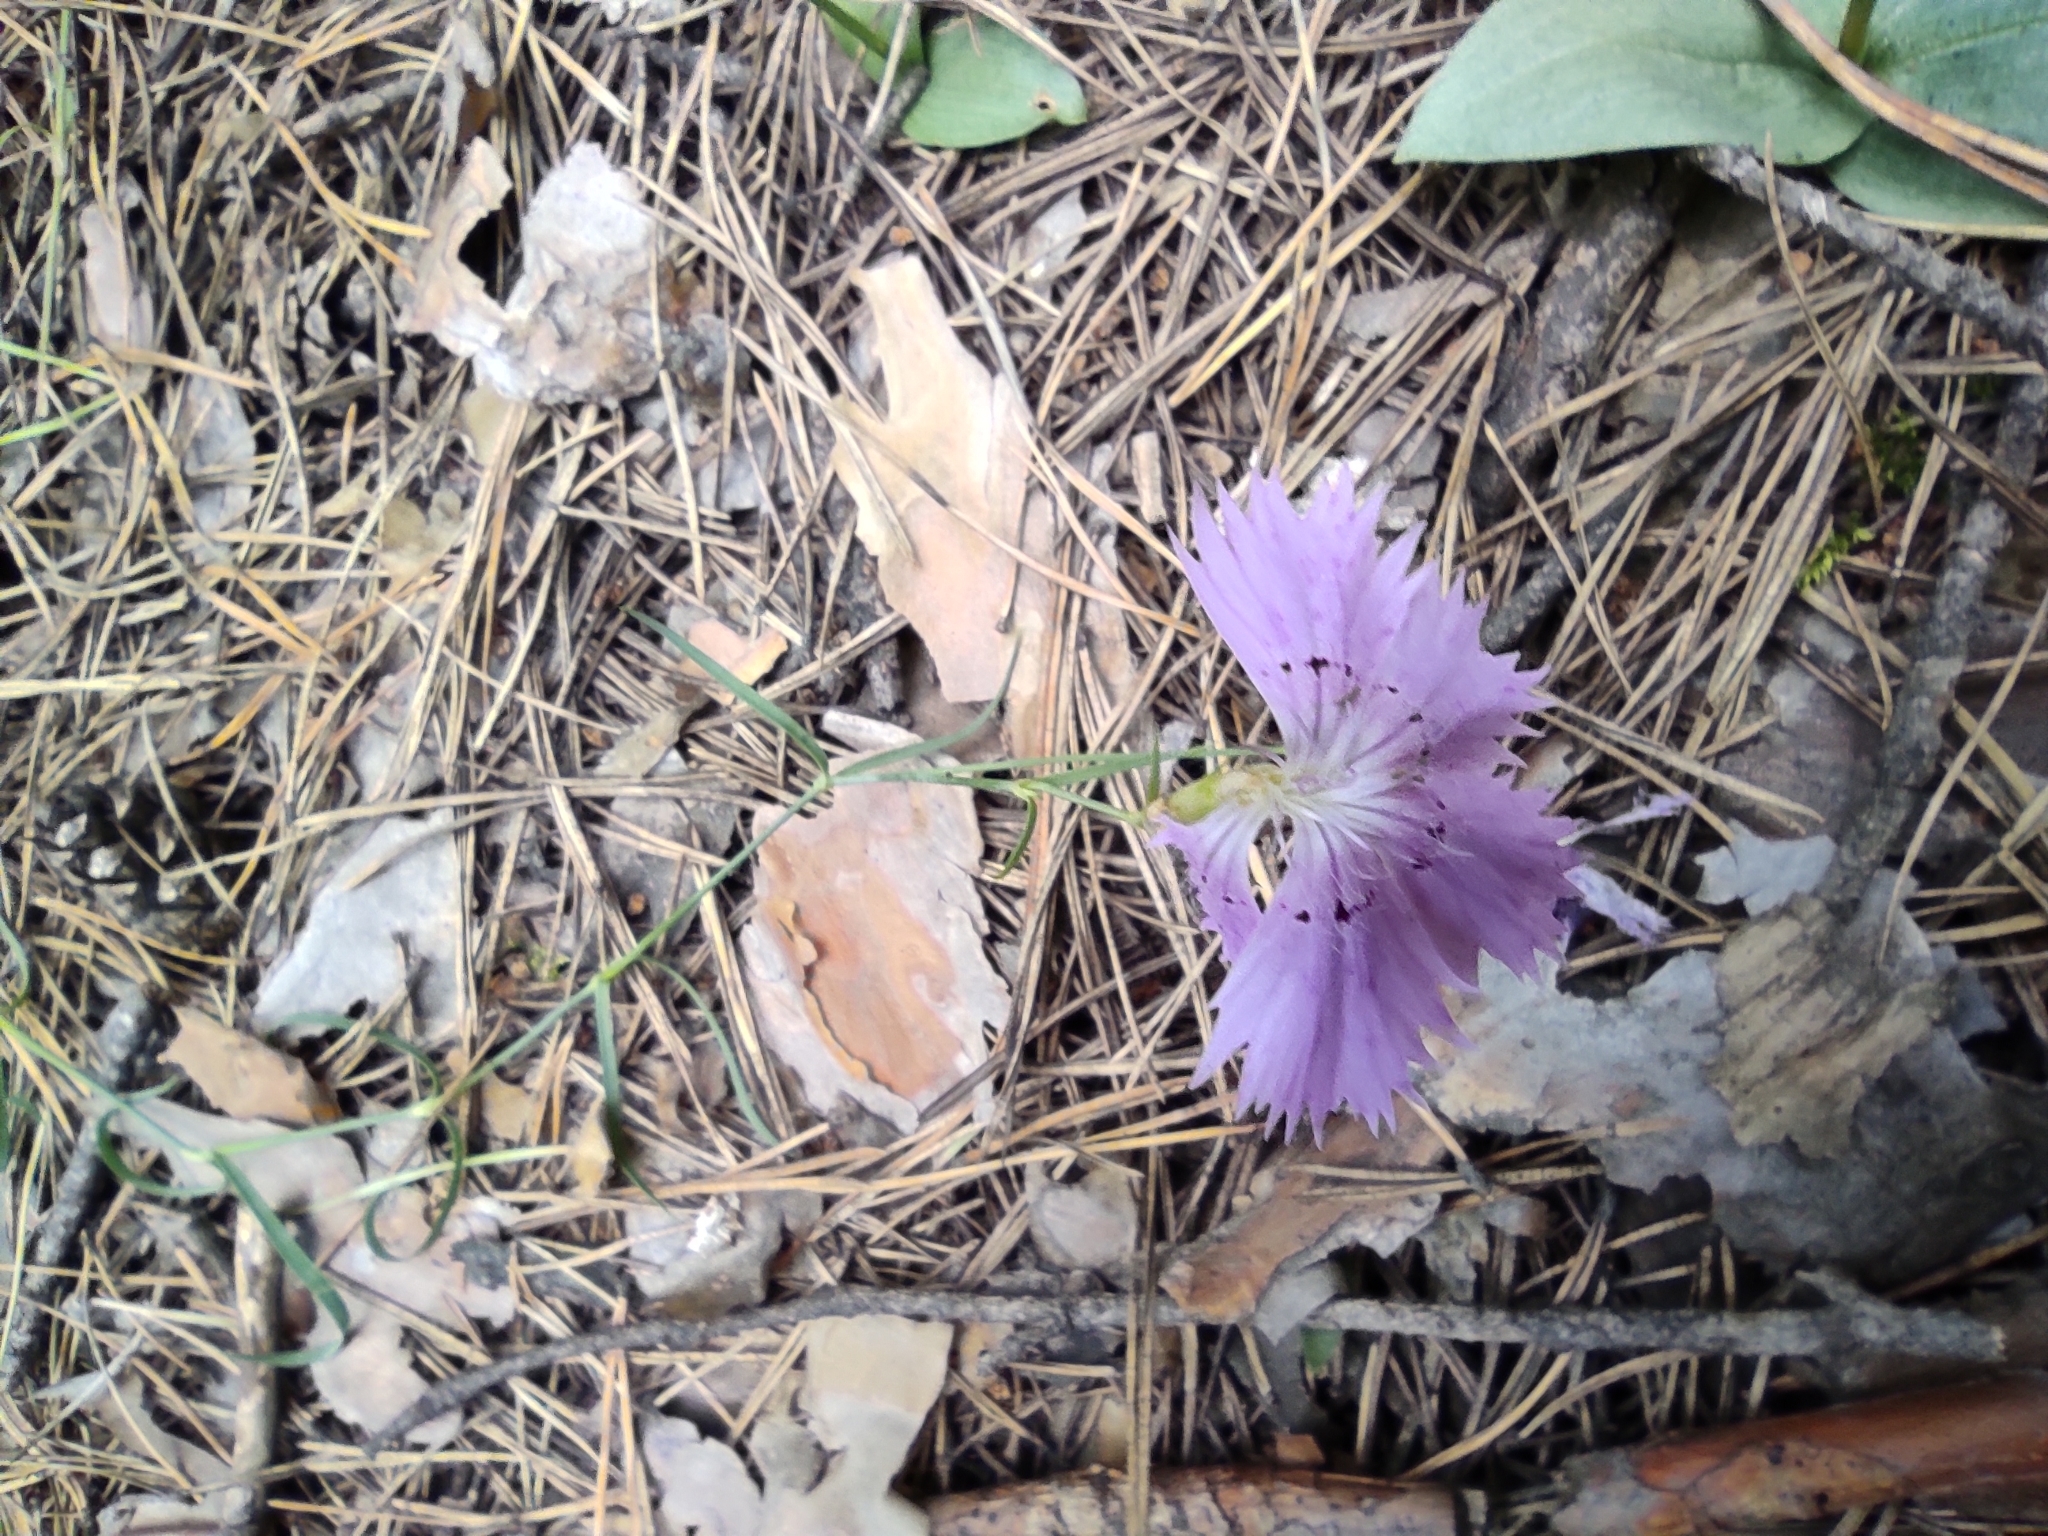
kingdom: Plantae
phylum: Tracheophyta
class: Magnoliopsida
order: Caryophyllales
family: Caryophyllaceae
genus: Dianthus
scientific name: Dianthus chinensis
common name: Rainbow pink
